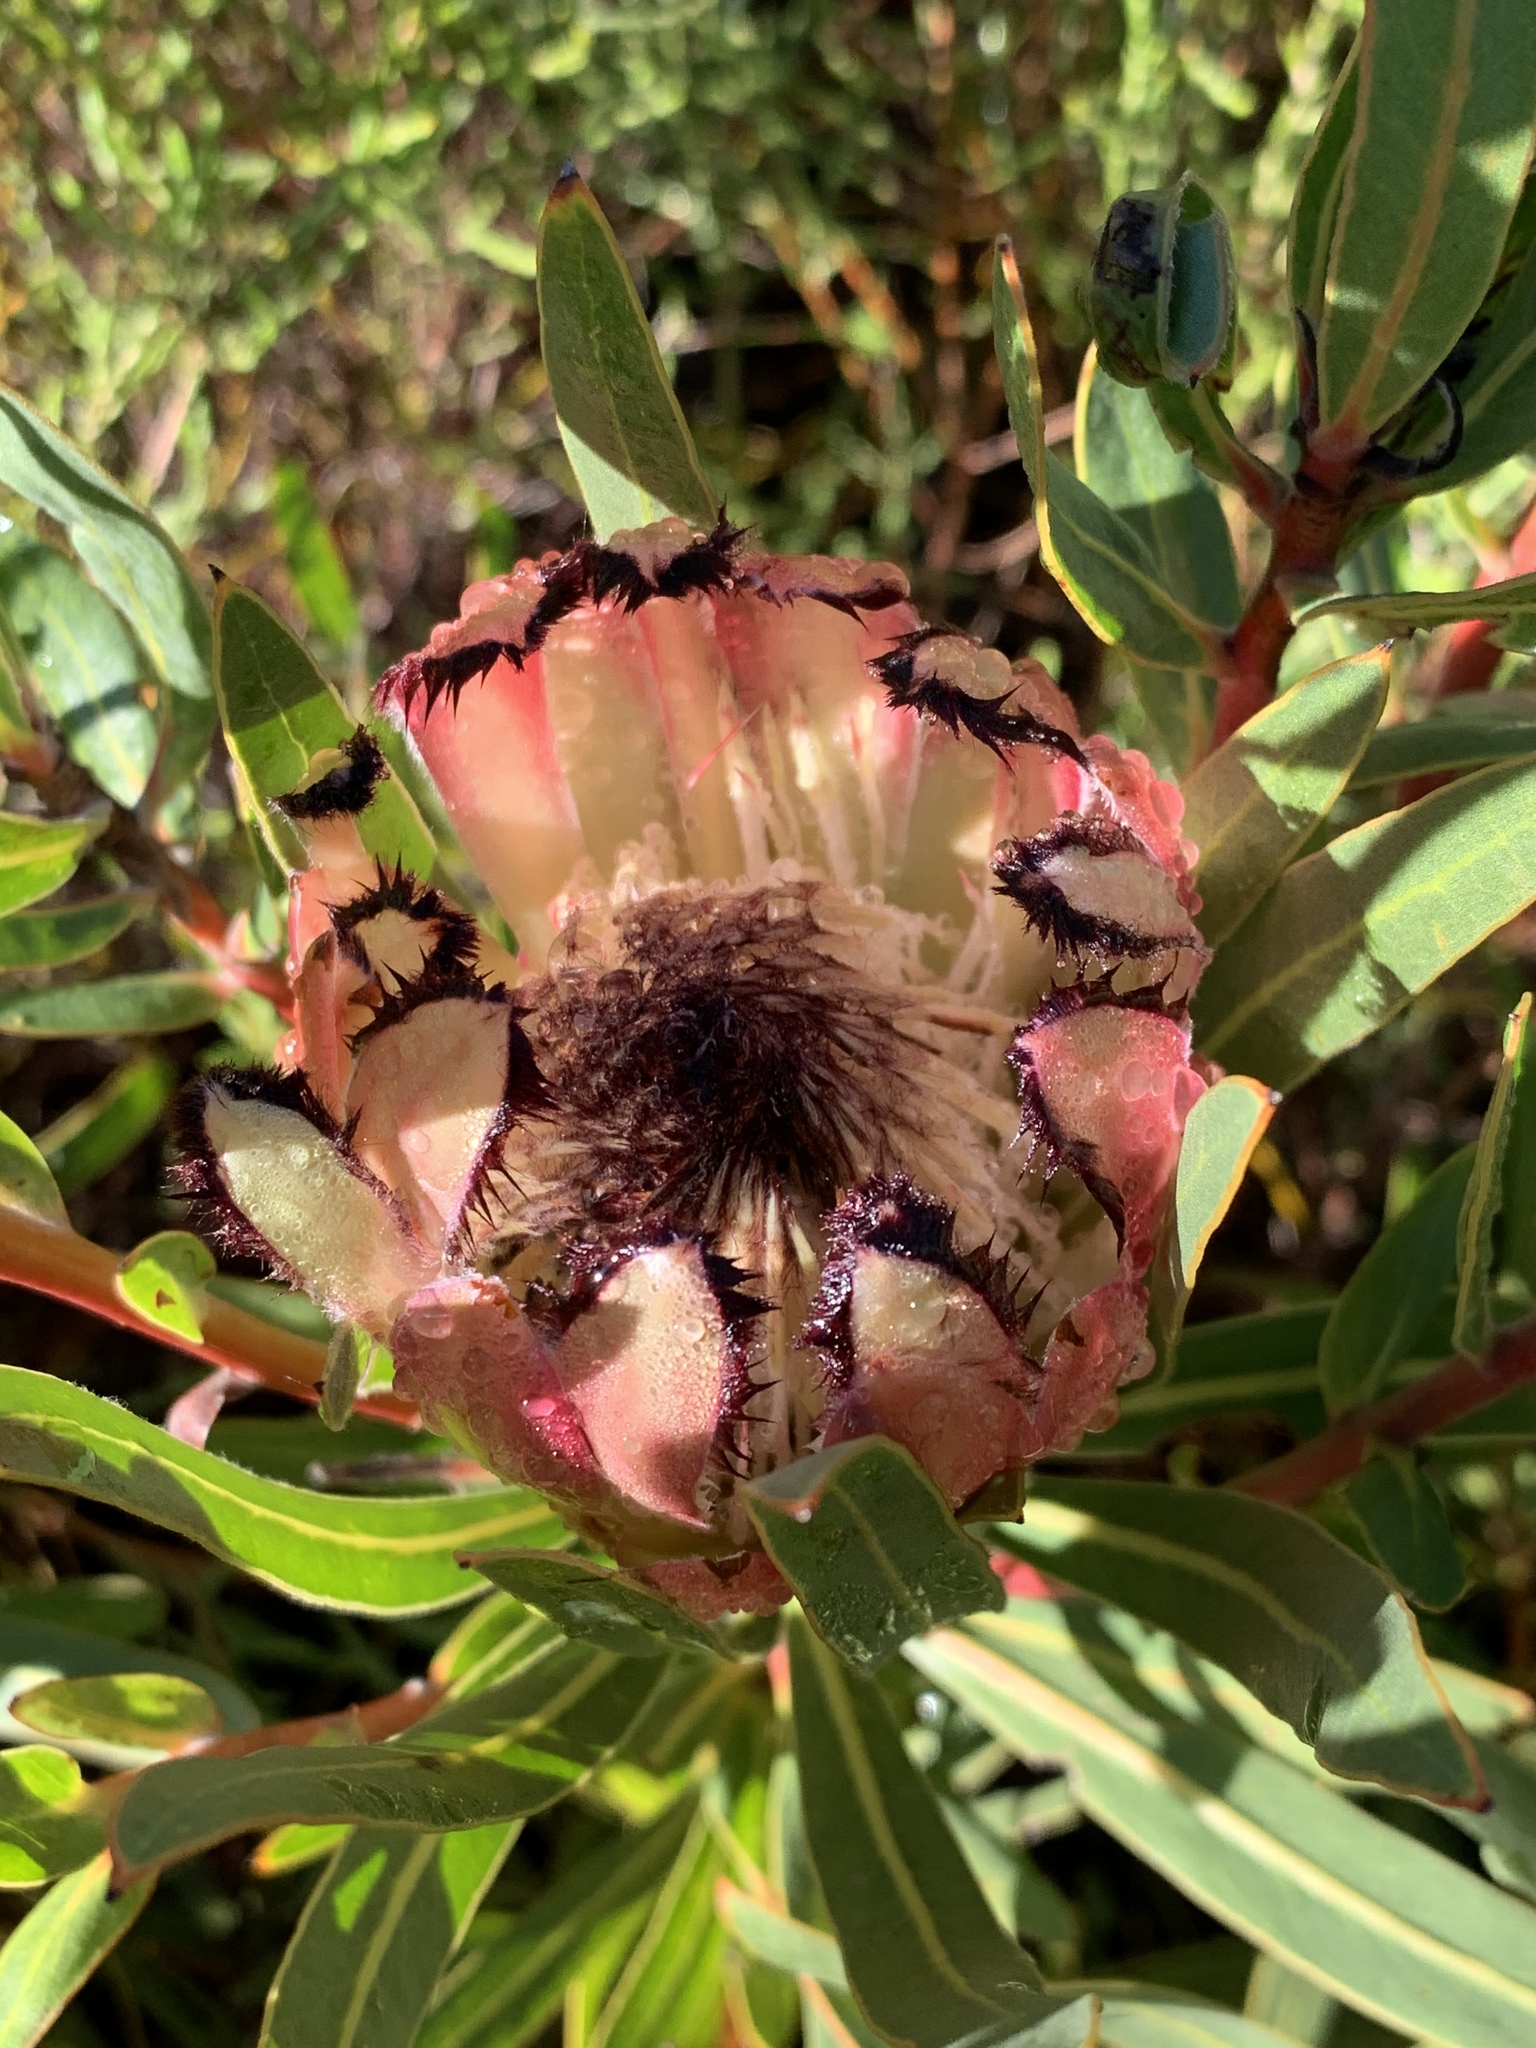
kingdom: Plantae
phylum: Tracheophyta
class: Magnoliopsida
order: Proteales
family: Proteaceae
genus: Protea
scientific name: Protea burchellii
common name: Burchell's sugarbush
